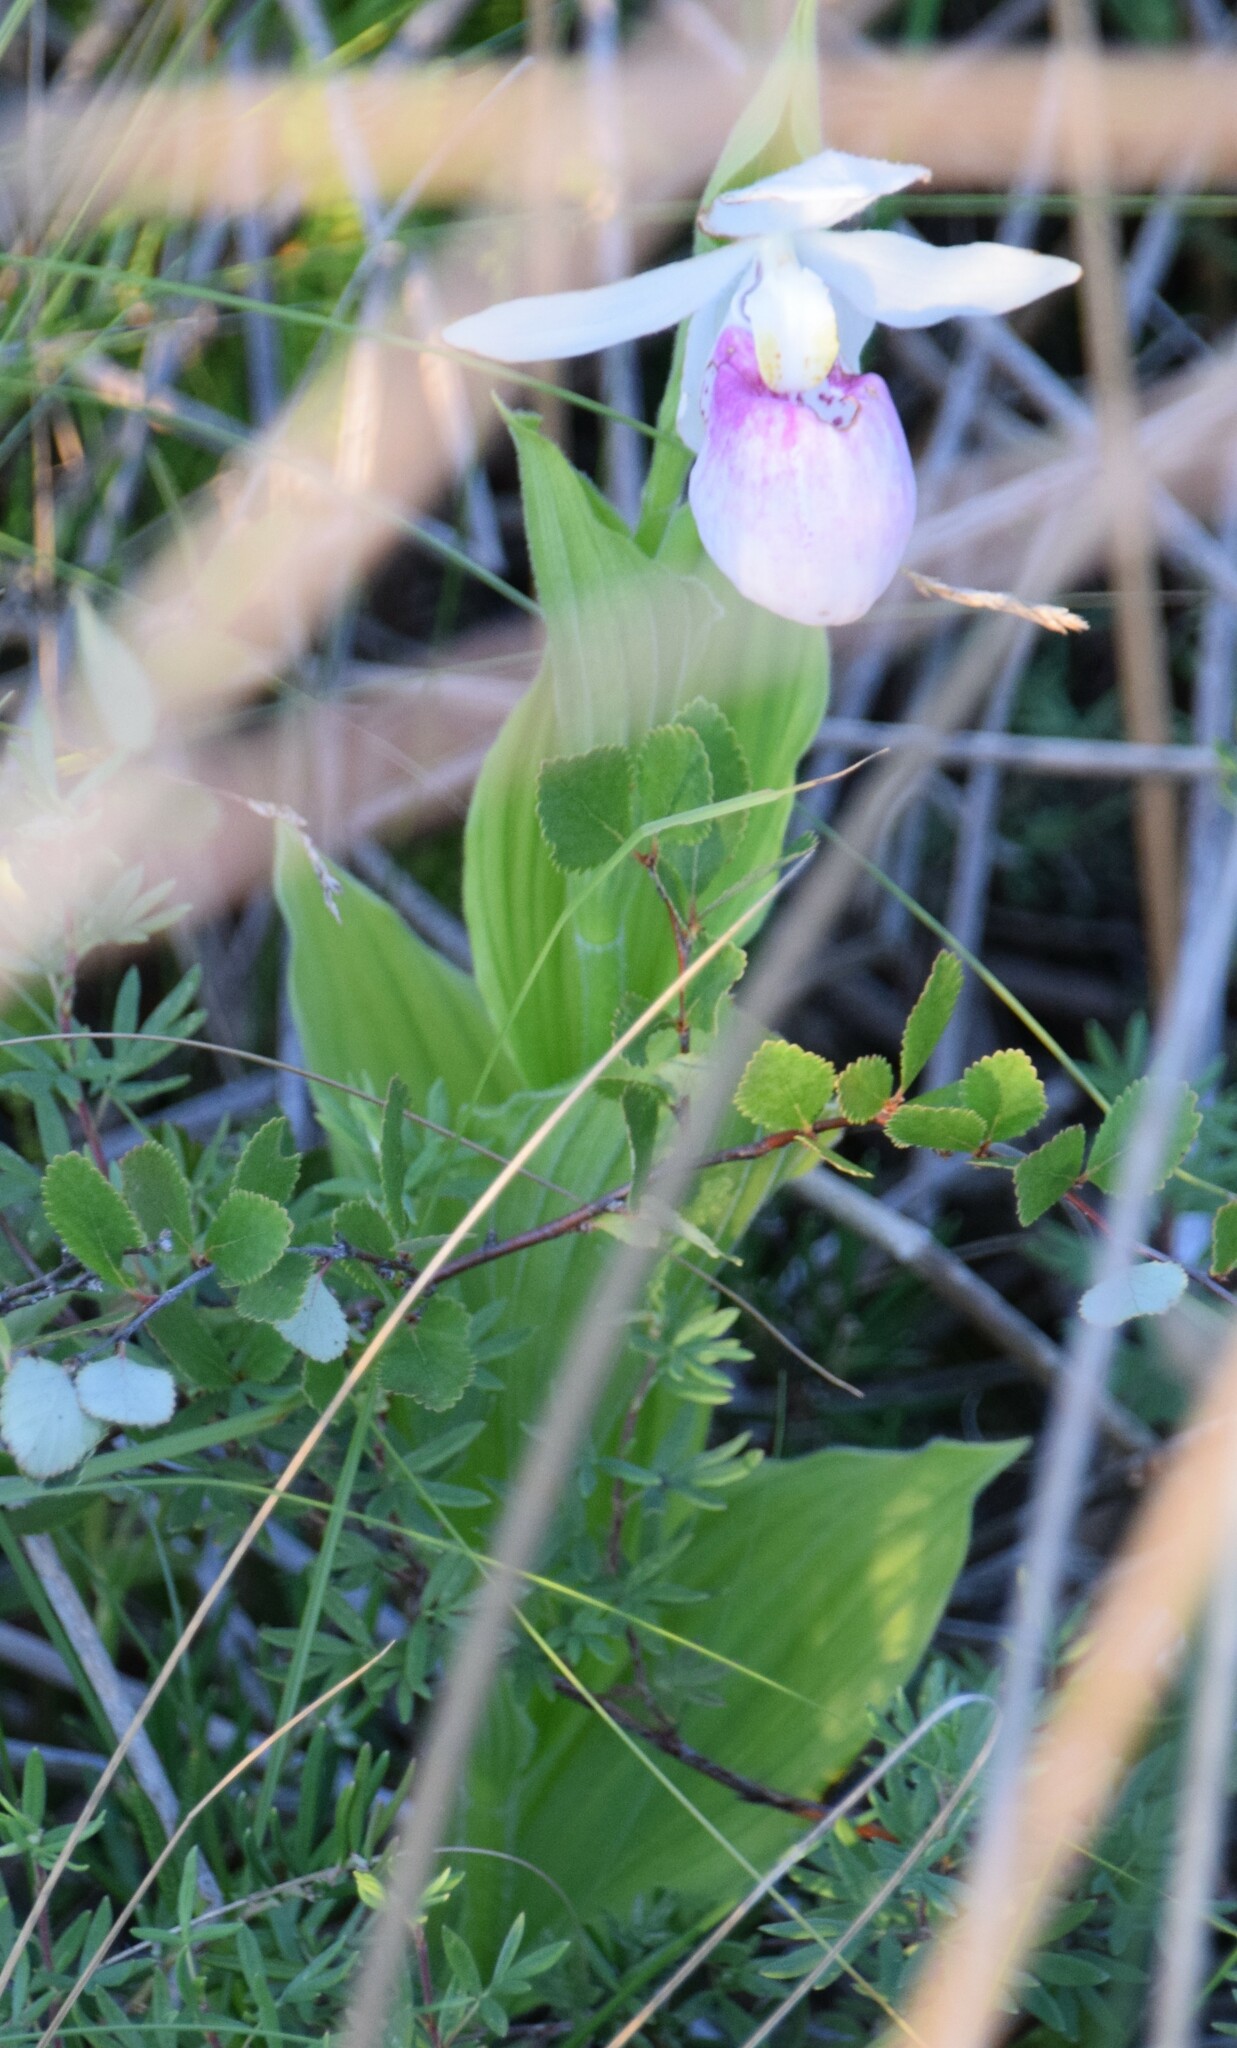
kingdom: Plantae
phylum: Tracheophyta
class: Liliopsida
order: Asparagales
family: Orchidaceae
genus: Cypripedium
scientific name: Cypripedium reginae
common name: Queen lady's-slipper
